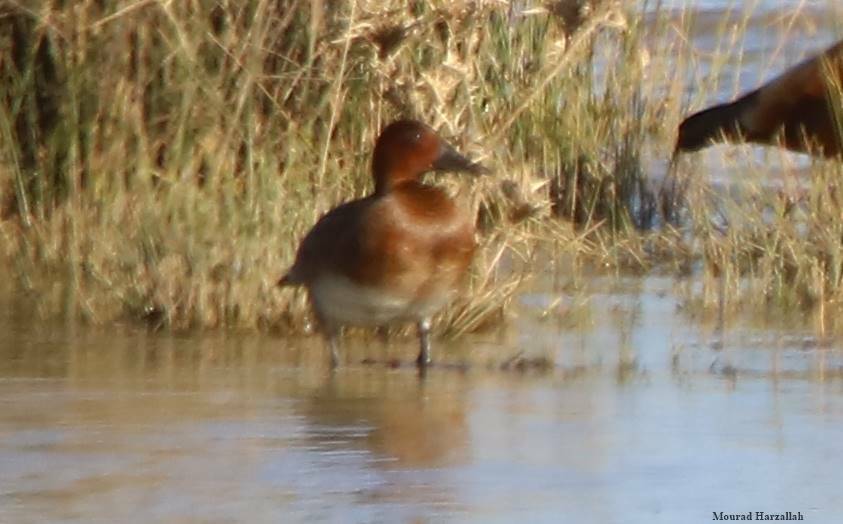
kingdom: Animalia
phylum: Chordata
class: Aves
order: Anseriformes
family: Anatidae
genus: Aythya
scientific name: Aythya nyroca
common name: Ferruginous duck
